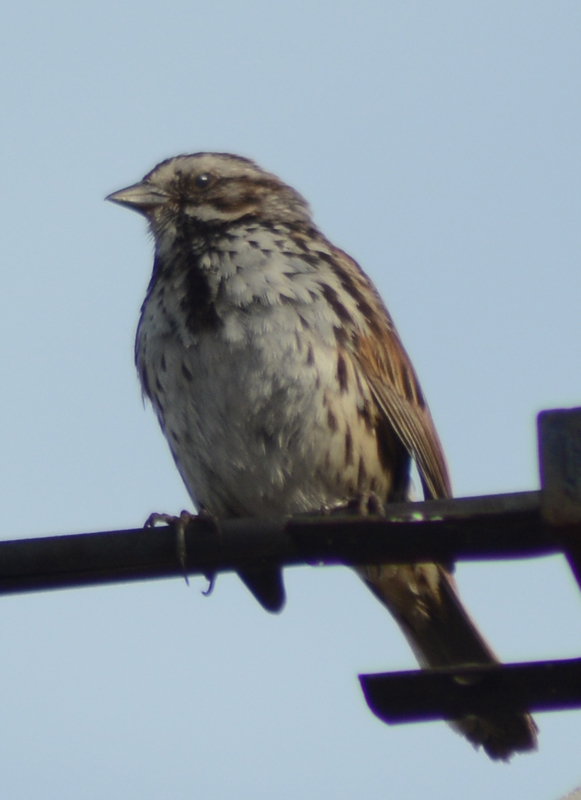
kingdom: Animalia
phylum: Chordata
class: Aves
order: Passeriformes
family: Passerellidae
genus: Melospiza
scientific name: Melospiza melodia
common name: Song sparrow
